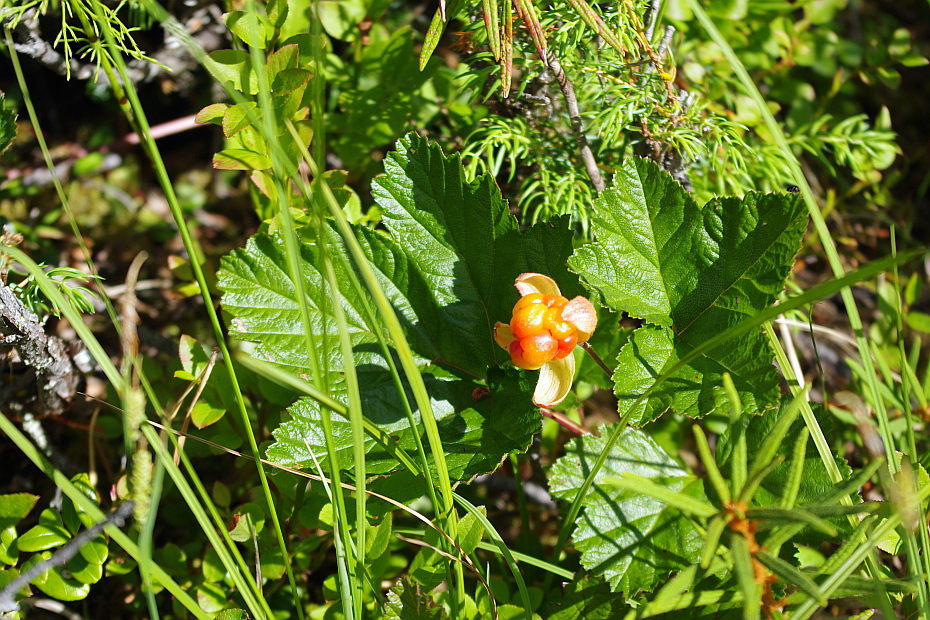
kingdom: Plantae
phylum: Tracheophyta
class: Magnoliopsida
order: Rosales
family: Rosaceae
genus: Rubus
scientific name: Rubus chamaemorus
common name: Cloudberry
